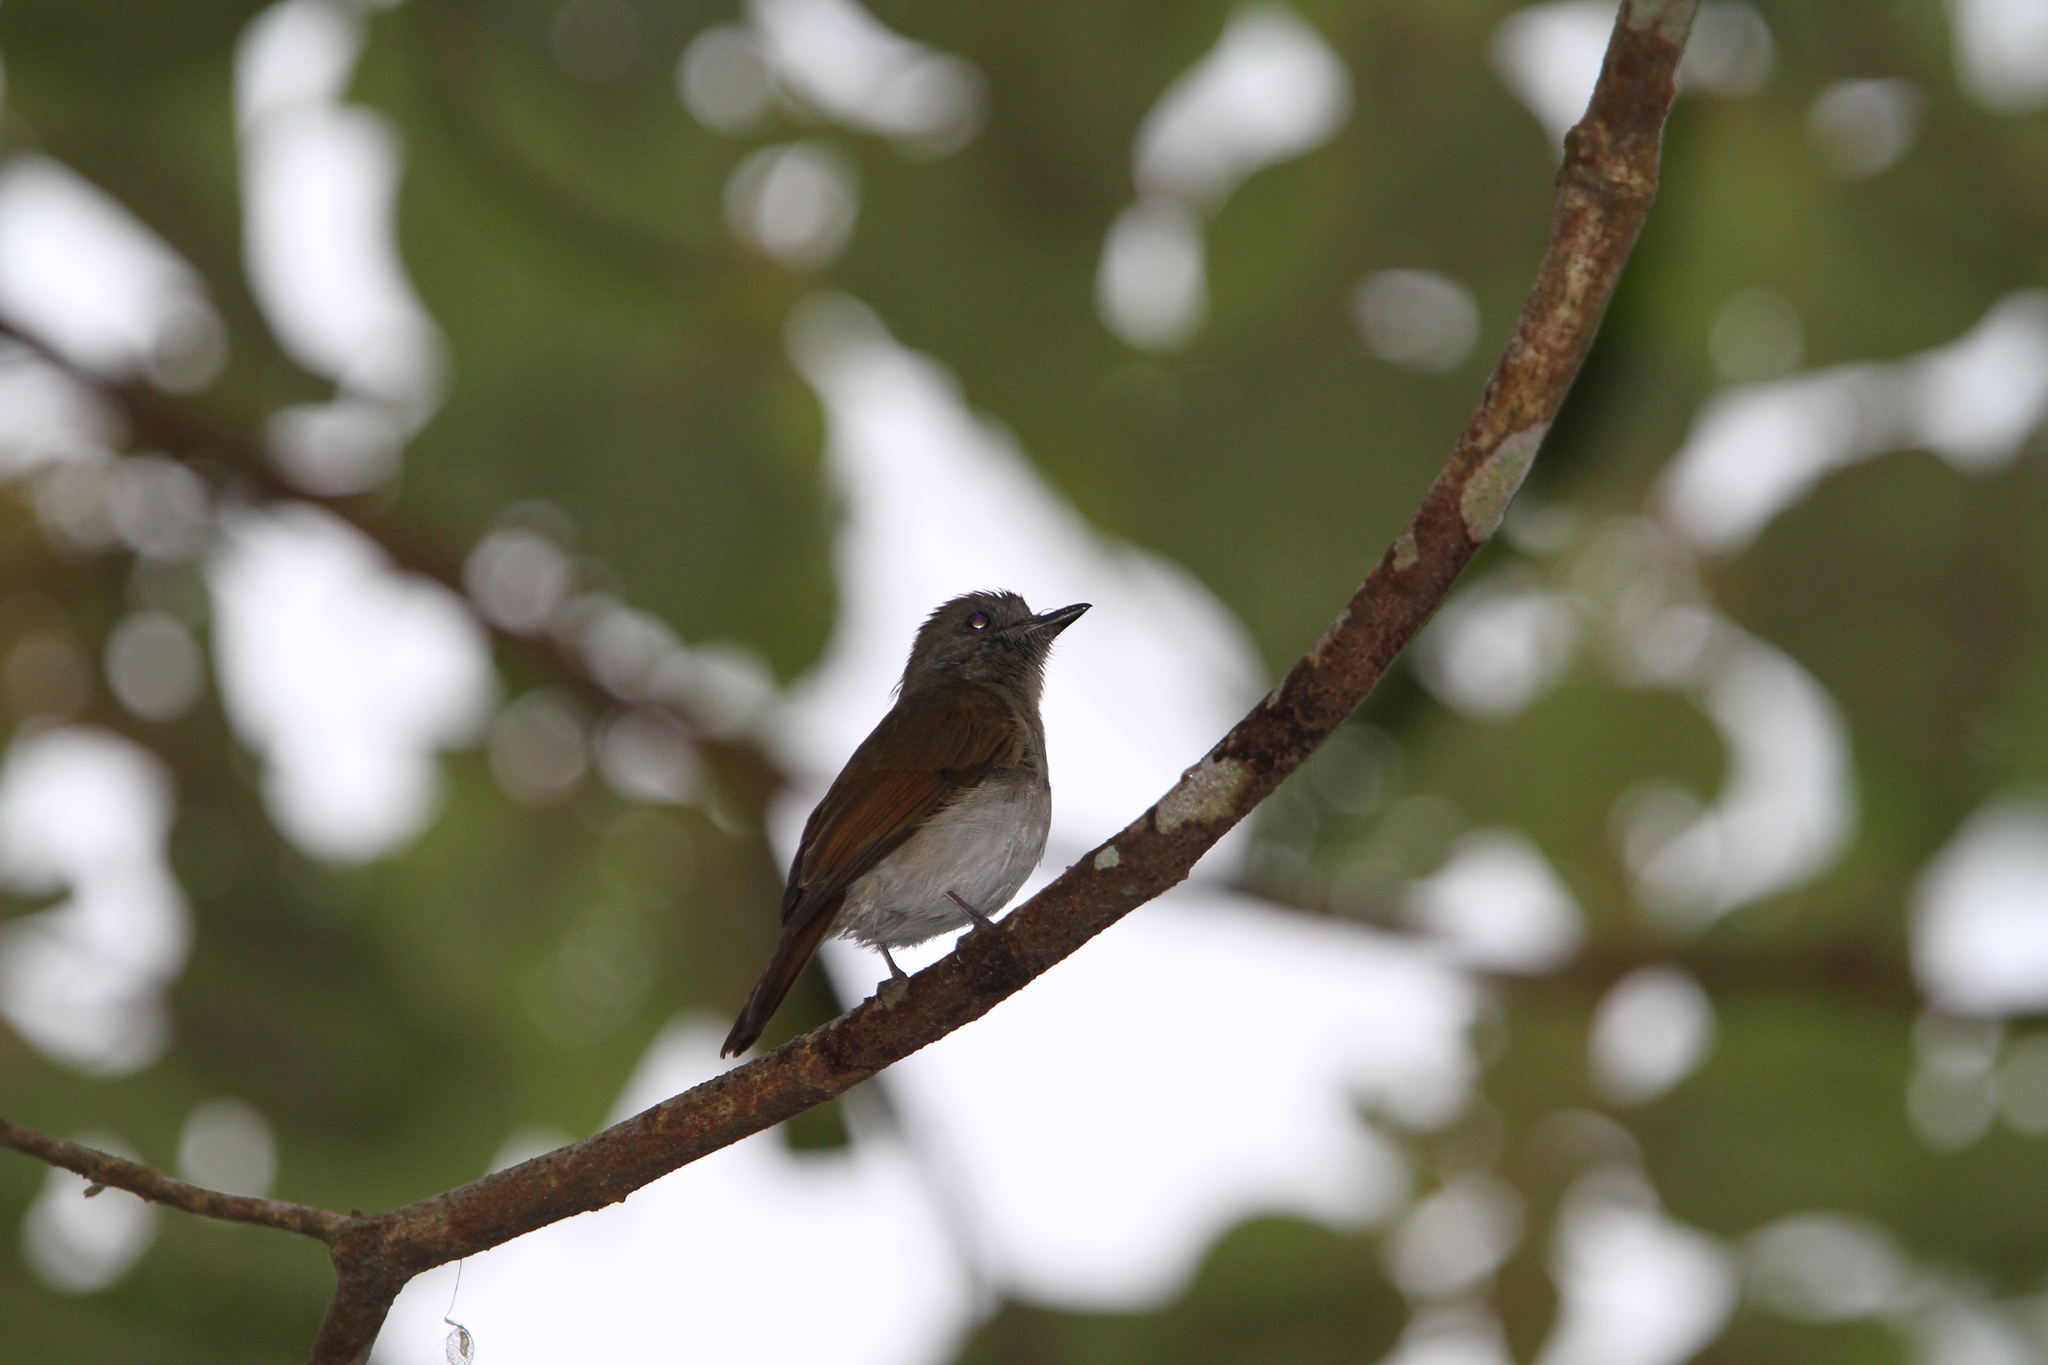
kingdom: Animalia
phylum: Chordata
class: Aves
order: Passeriformes
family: Muscicapidae
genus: Rhinomyias
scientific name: Rhinomyias oscillans
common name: Russet-backed jungle flycatcher
